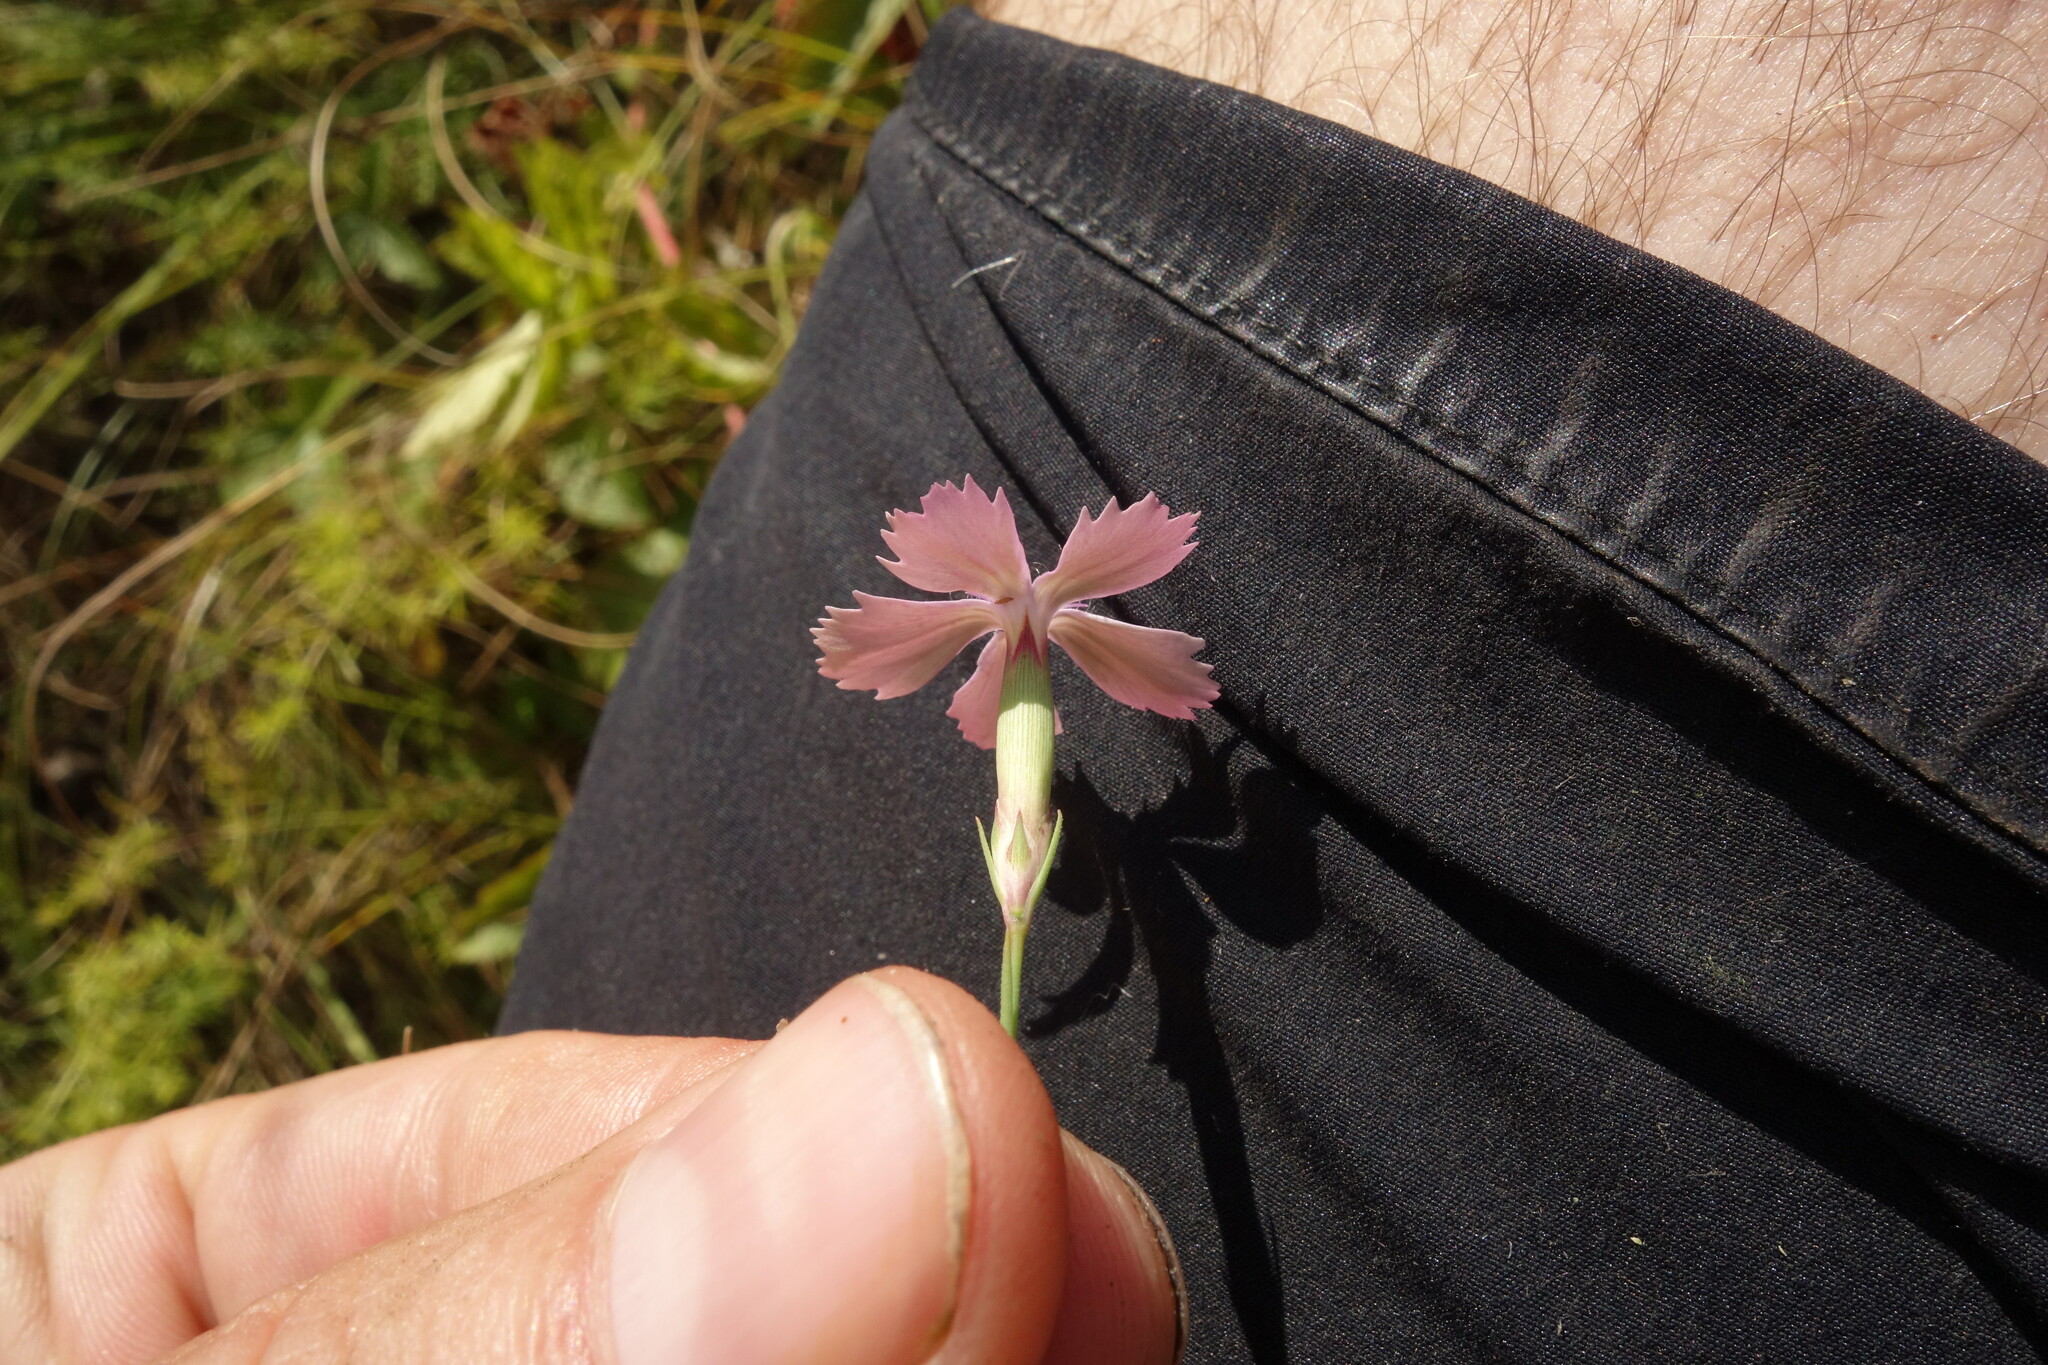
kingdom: Plantae
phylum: Tracheophyta
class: Magnoliopsida
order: Caryophyllales
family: Caryophyllaceae
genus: Dianthus
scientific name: Dianthus campestris
